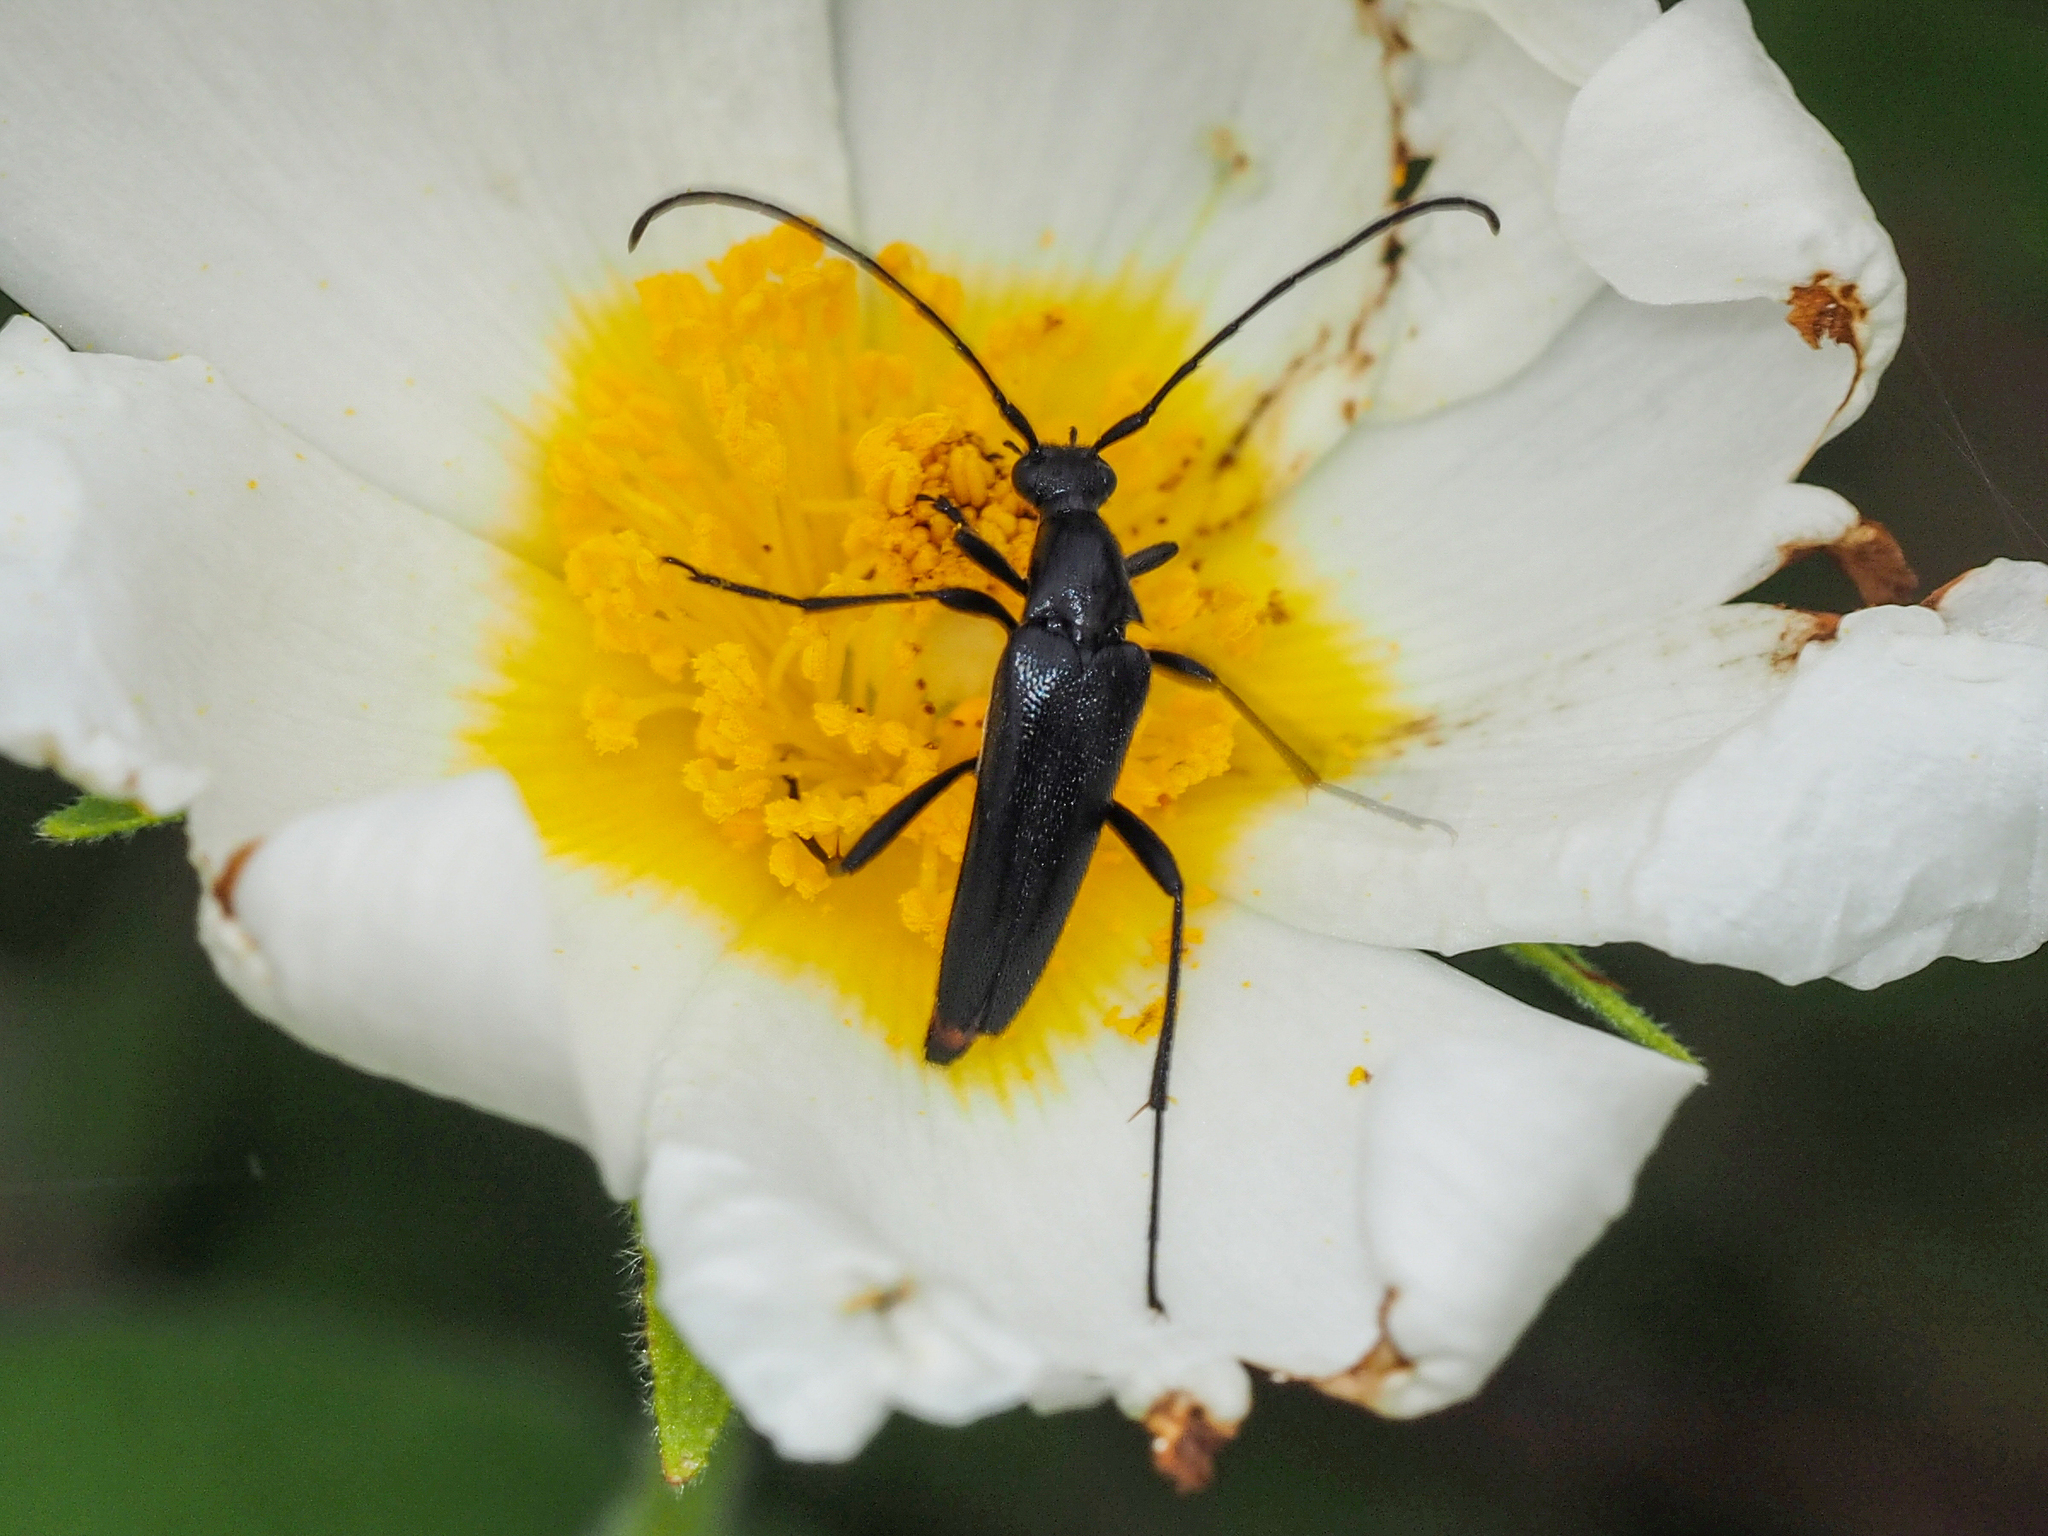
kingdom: Animalia
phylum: Arthropoda
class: Insecta
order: Coleoptera
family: Cerambycidae
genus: Stenurella
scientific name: Stenurella nigra
